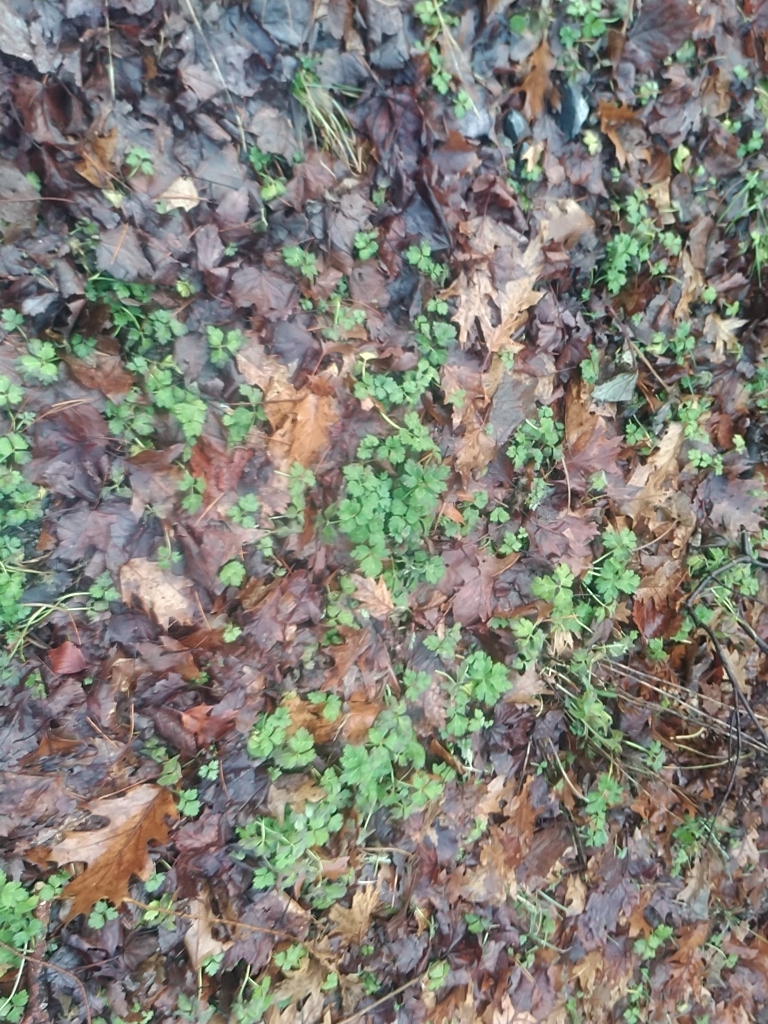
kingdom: Plantae
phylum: Tracheophyta
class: Magnoliopsida
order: Ranunculales
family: Ranunculaceae
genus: Ranunculus
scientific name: Ranunculus repens
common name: Creeping buttercup
